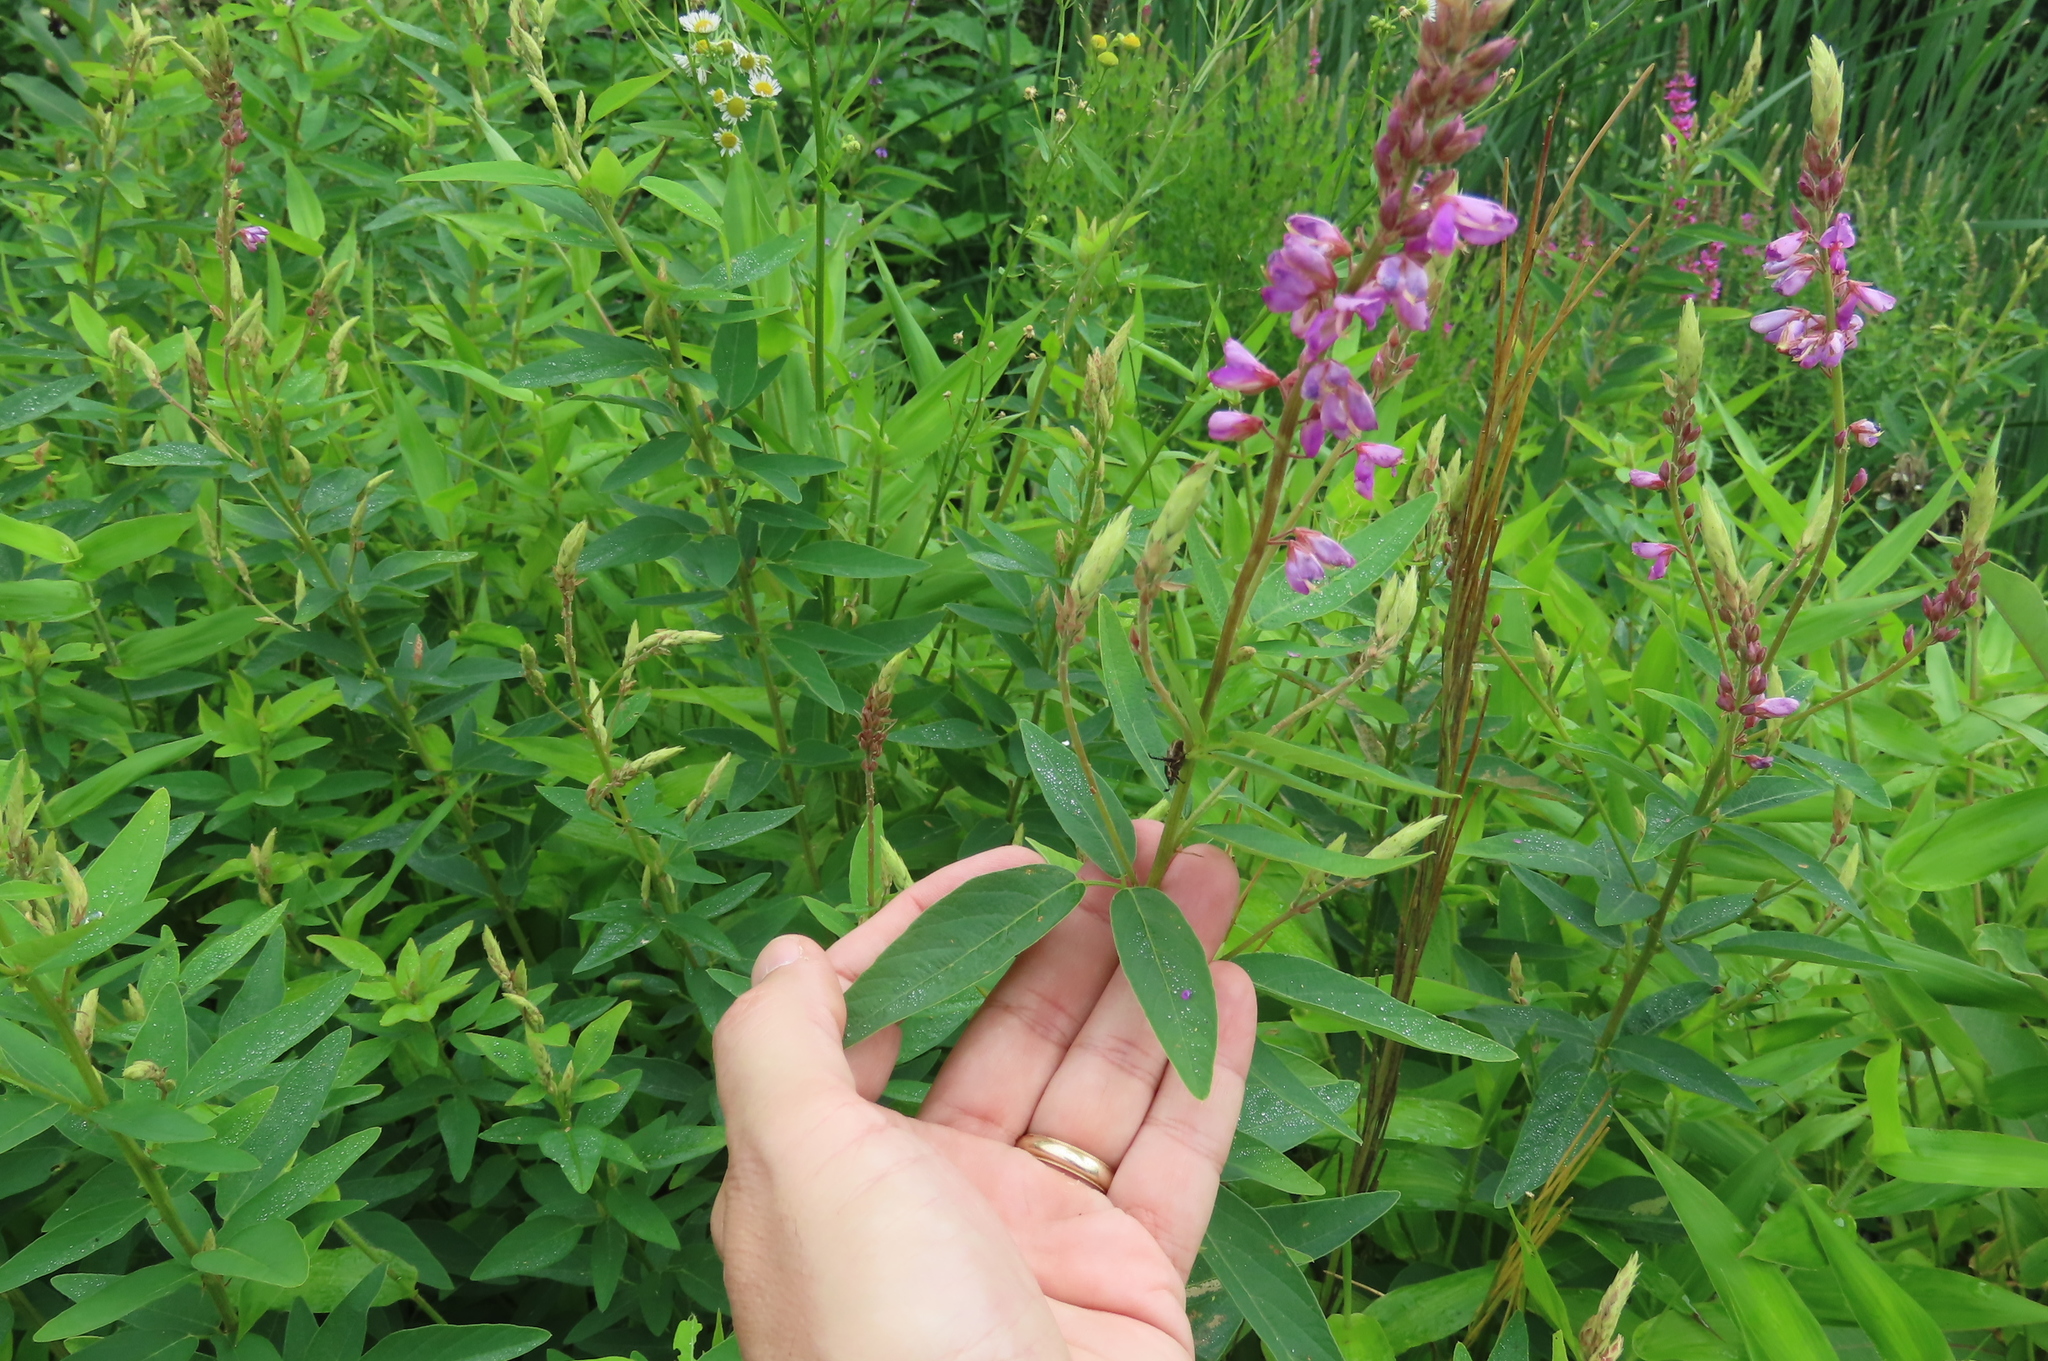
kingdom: Plantae
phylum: Tracheophyta
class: Magnoliopsida
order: Fabales
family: Fabaceae
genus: Desmodium
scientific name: Desmodium canadense
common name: Canada tick-trefoil
